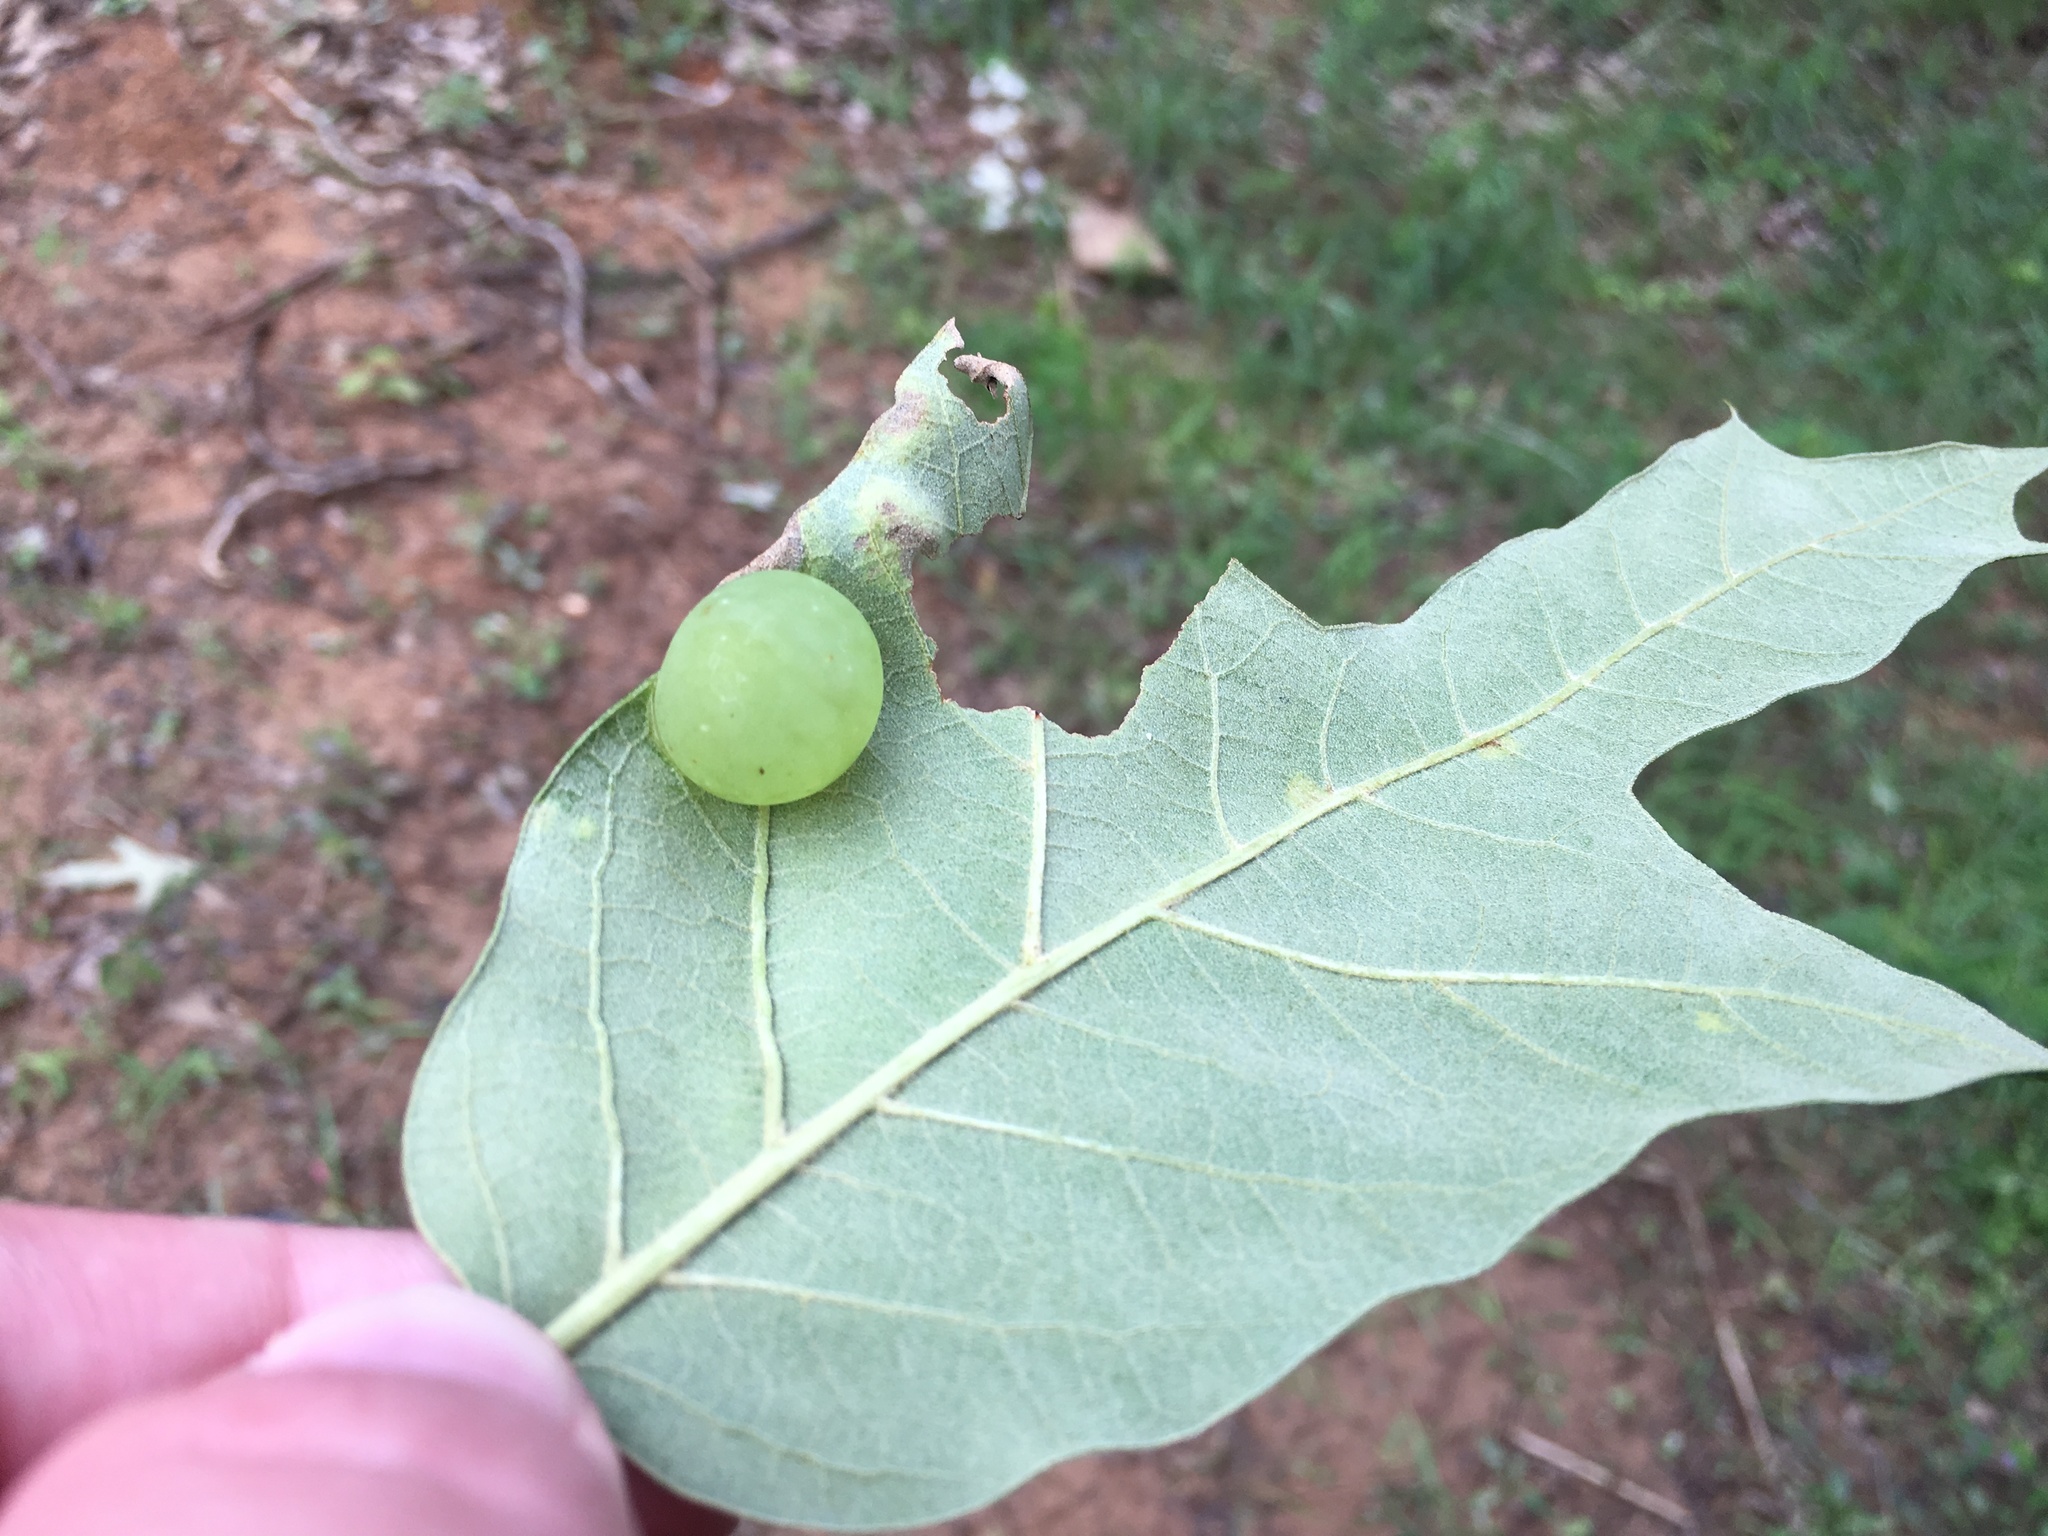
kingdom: Animalia
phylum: Arthropoda
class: Insecta
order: Hymenoptera
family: Cynipidae
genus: Amphibolips
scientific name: Amphibolips
